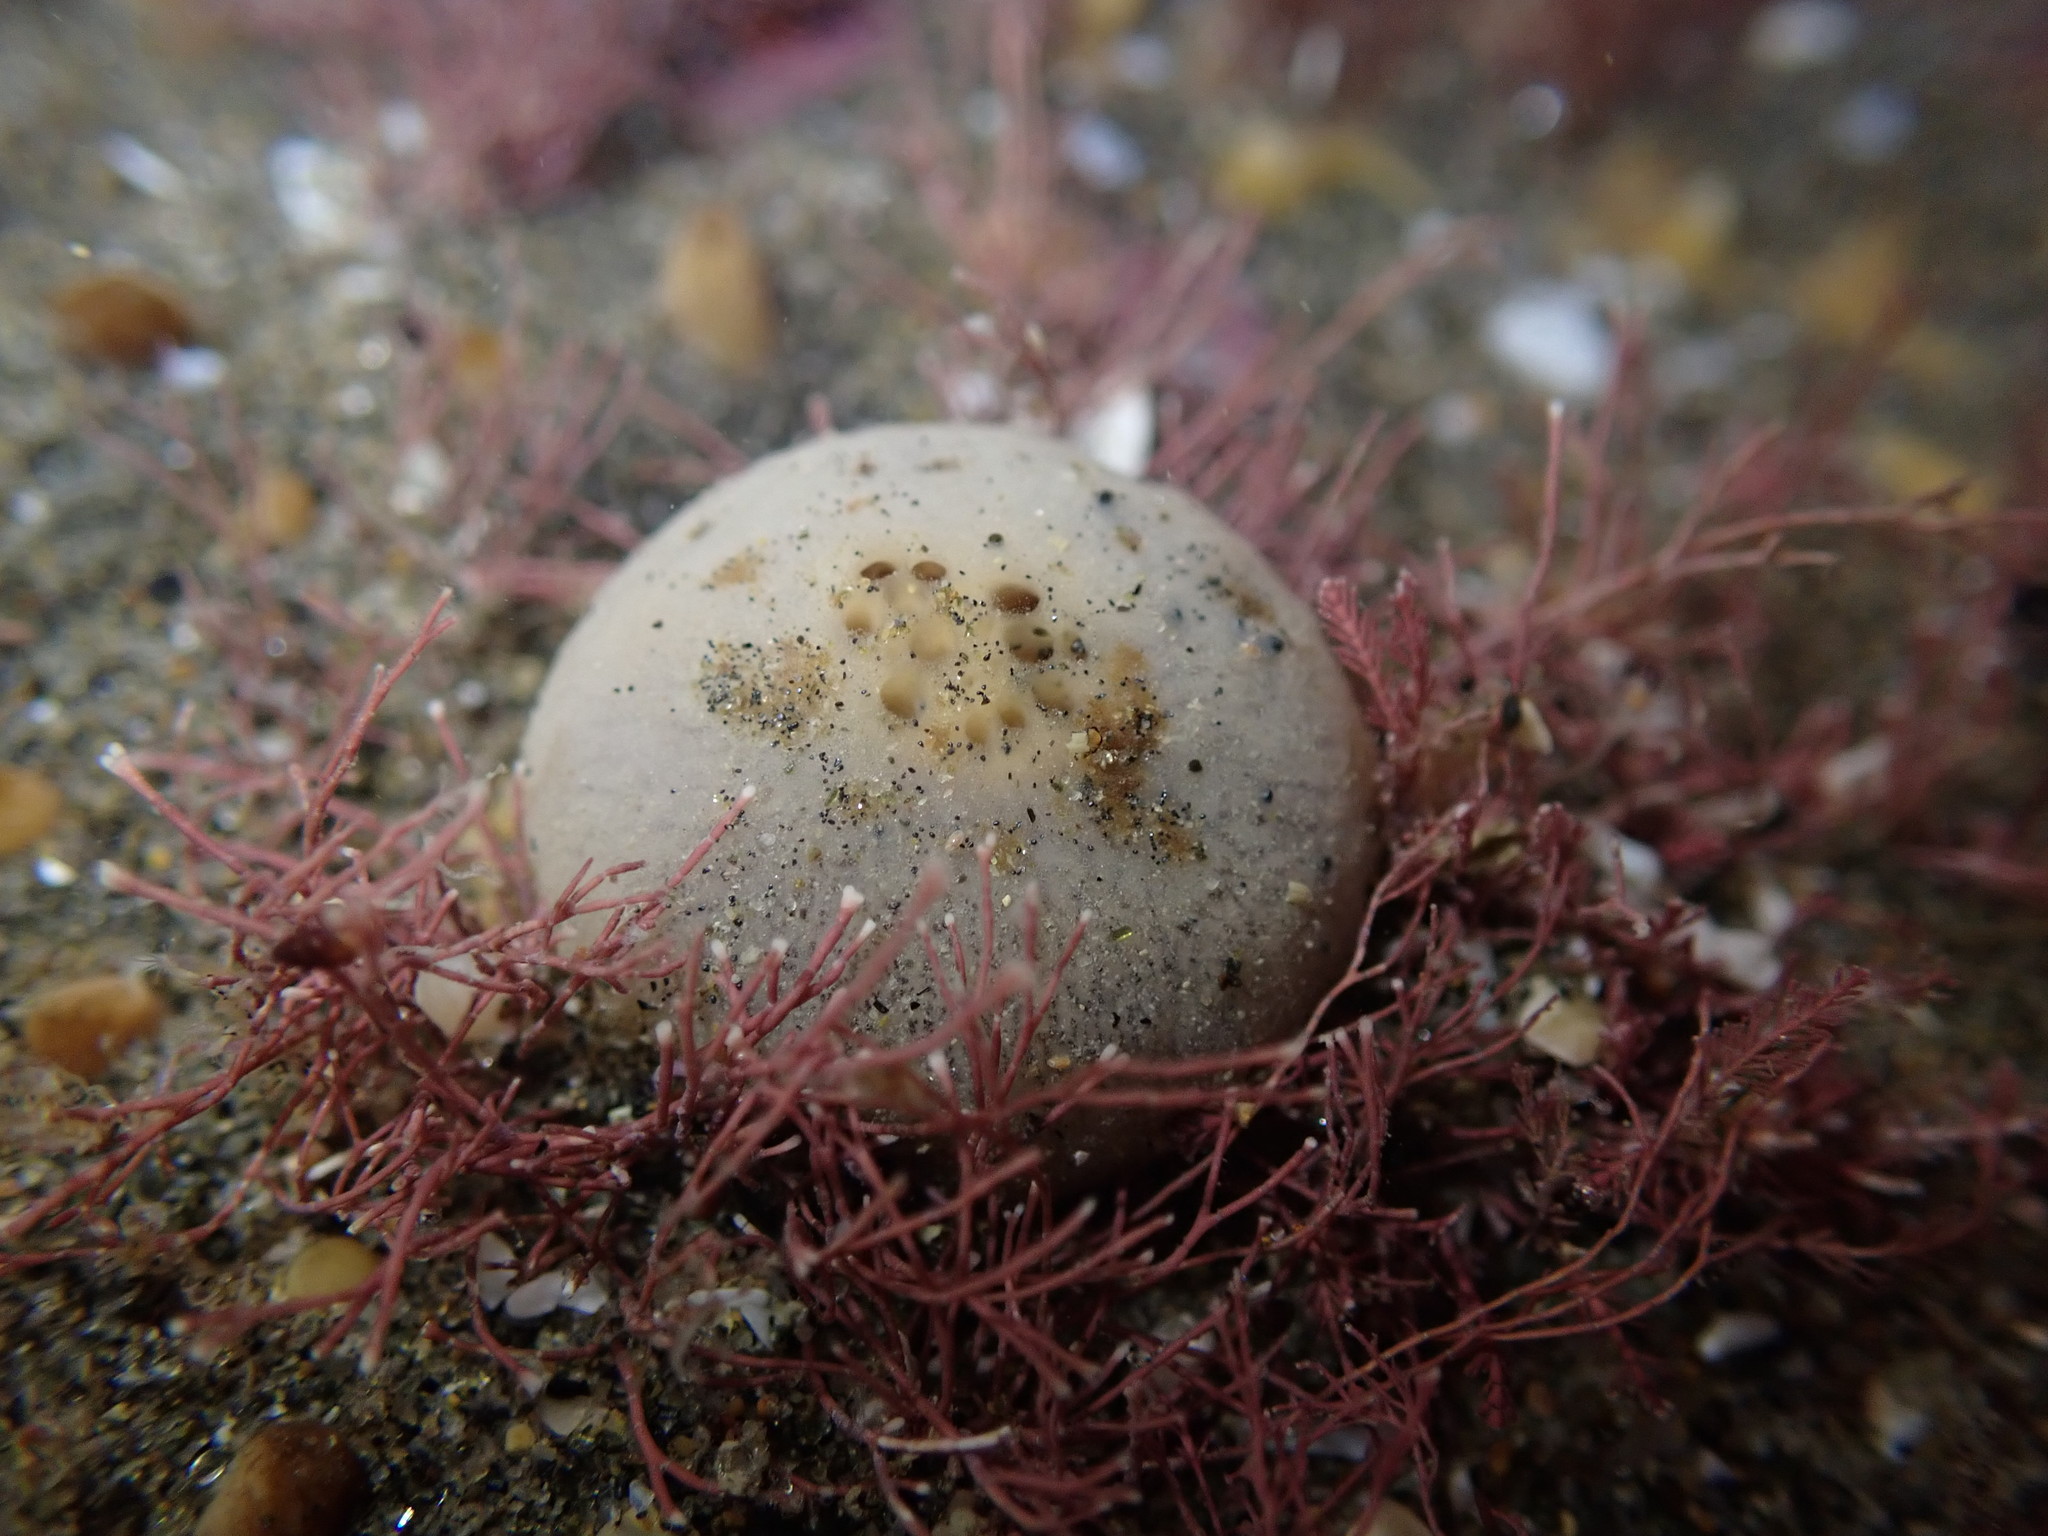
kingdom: Animalia
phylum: Porifera
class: Demospongiae
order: Suberitida
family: Suberitidae
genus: Suberites
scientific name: Suberites perfectus
